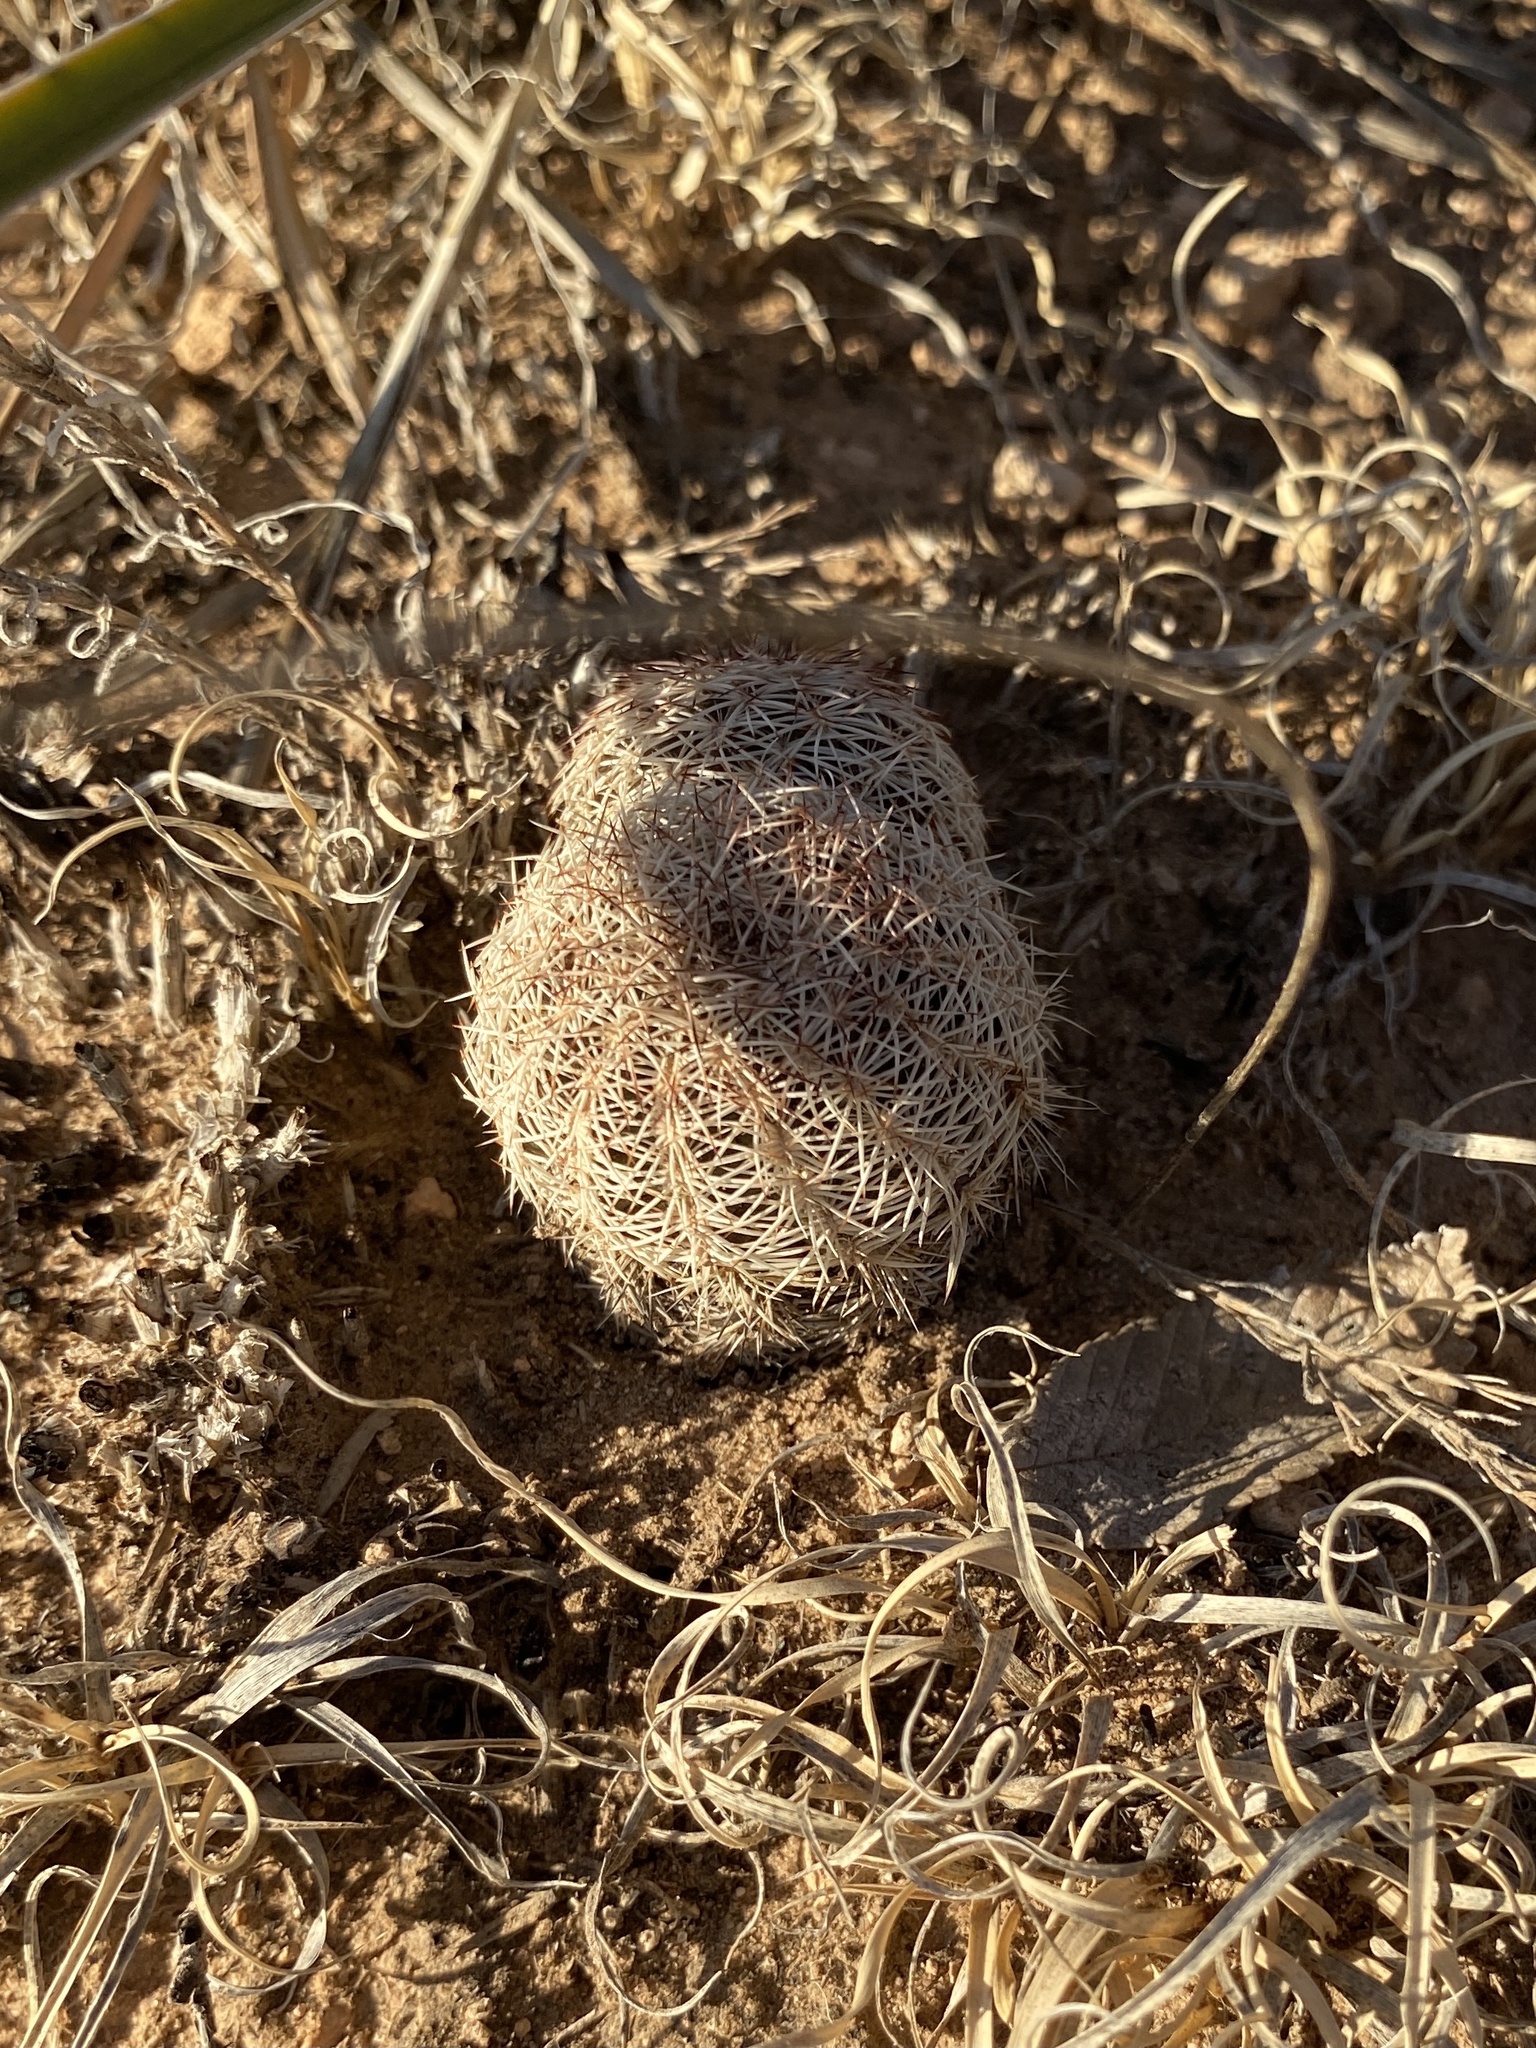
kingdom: Plantae
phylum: Tracheophyta
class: Magnoliopsida
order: Caryophyllales
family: Cactaceae
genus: Echinocereus
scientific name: Echinocereus reichenbachii
